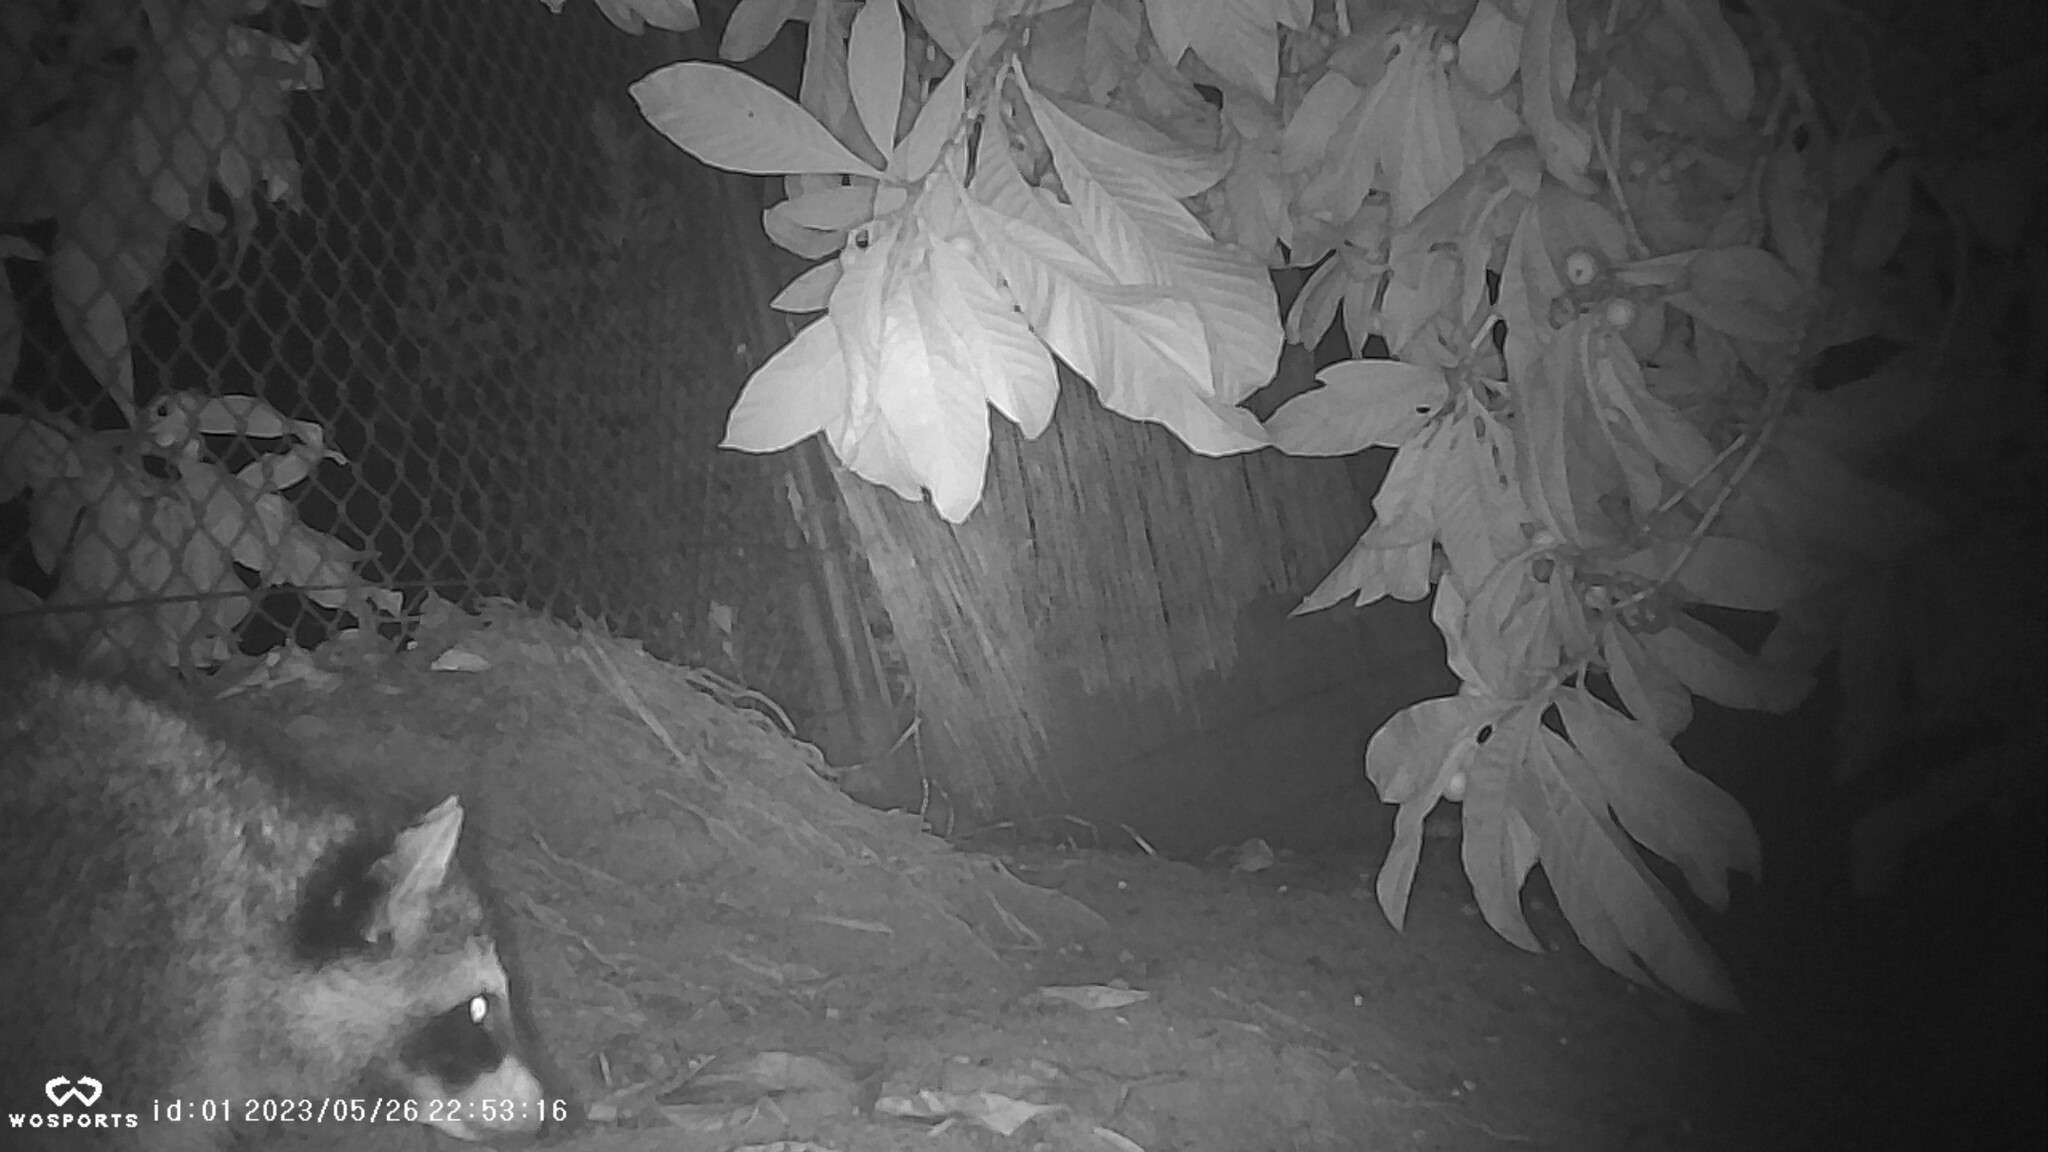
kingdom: Animalia
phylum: Chordata
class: Mammalia
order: Carnivora
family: Procyonidae
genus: Procyon
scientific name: Procyon lotor
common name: Raccoon
